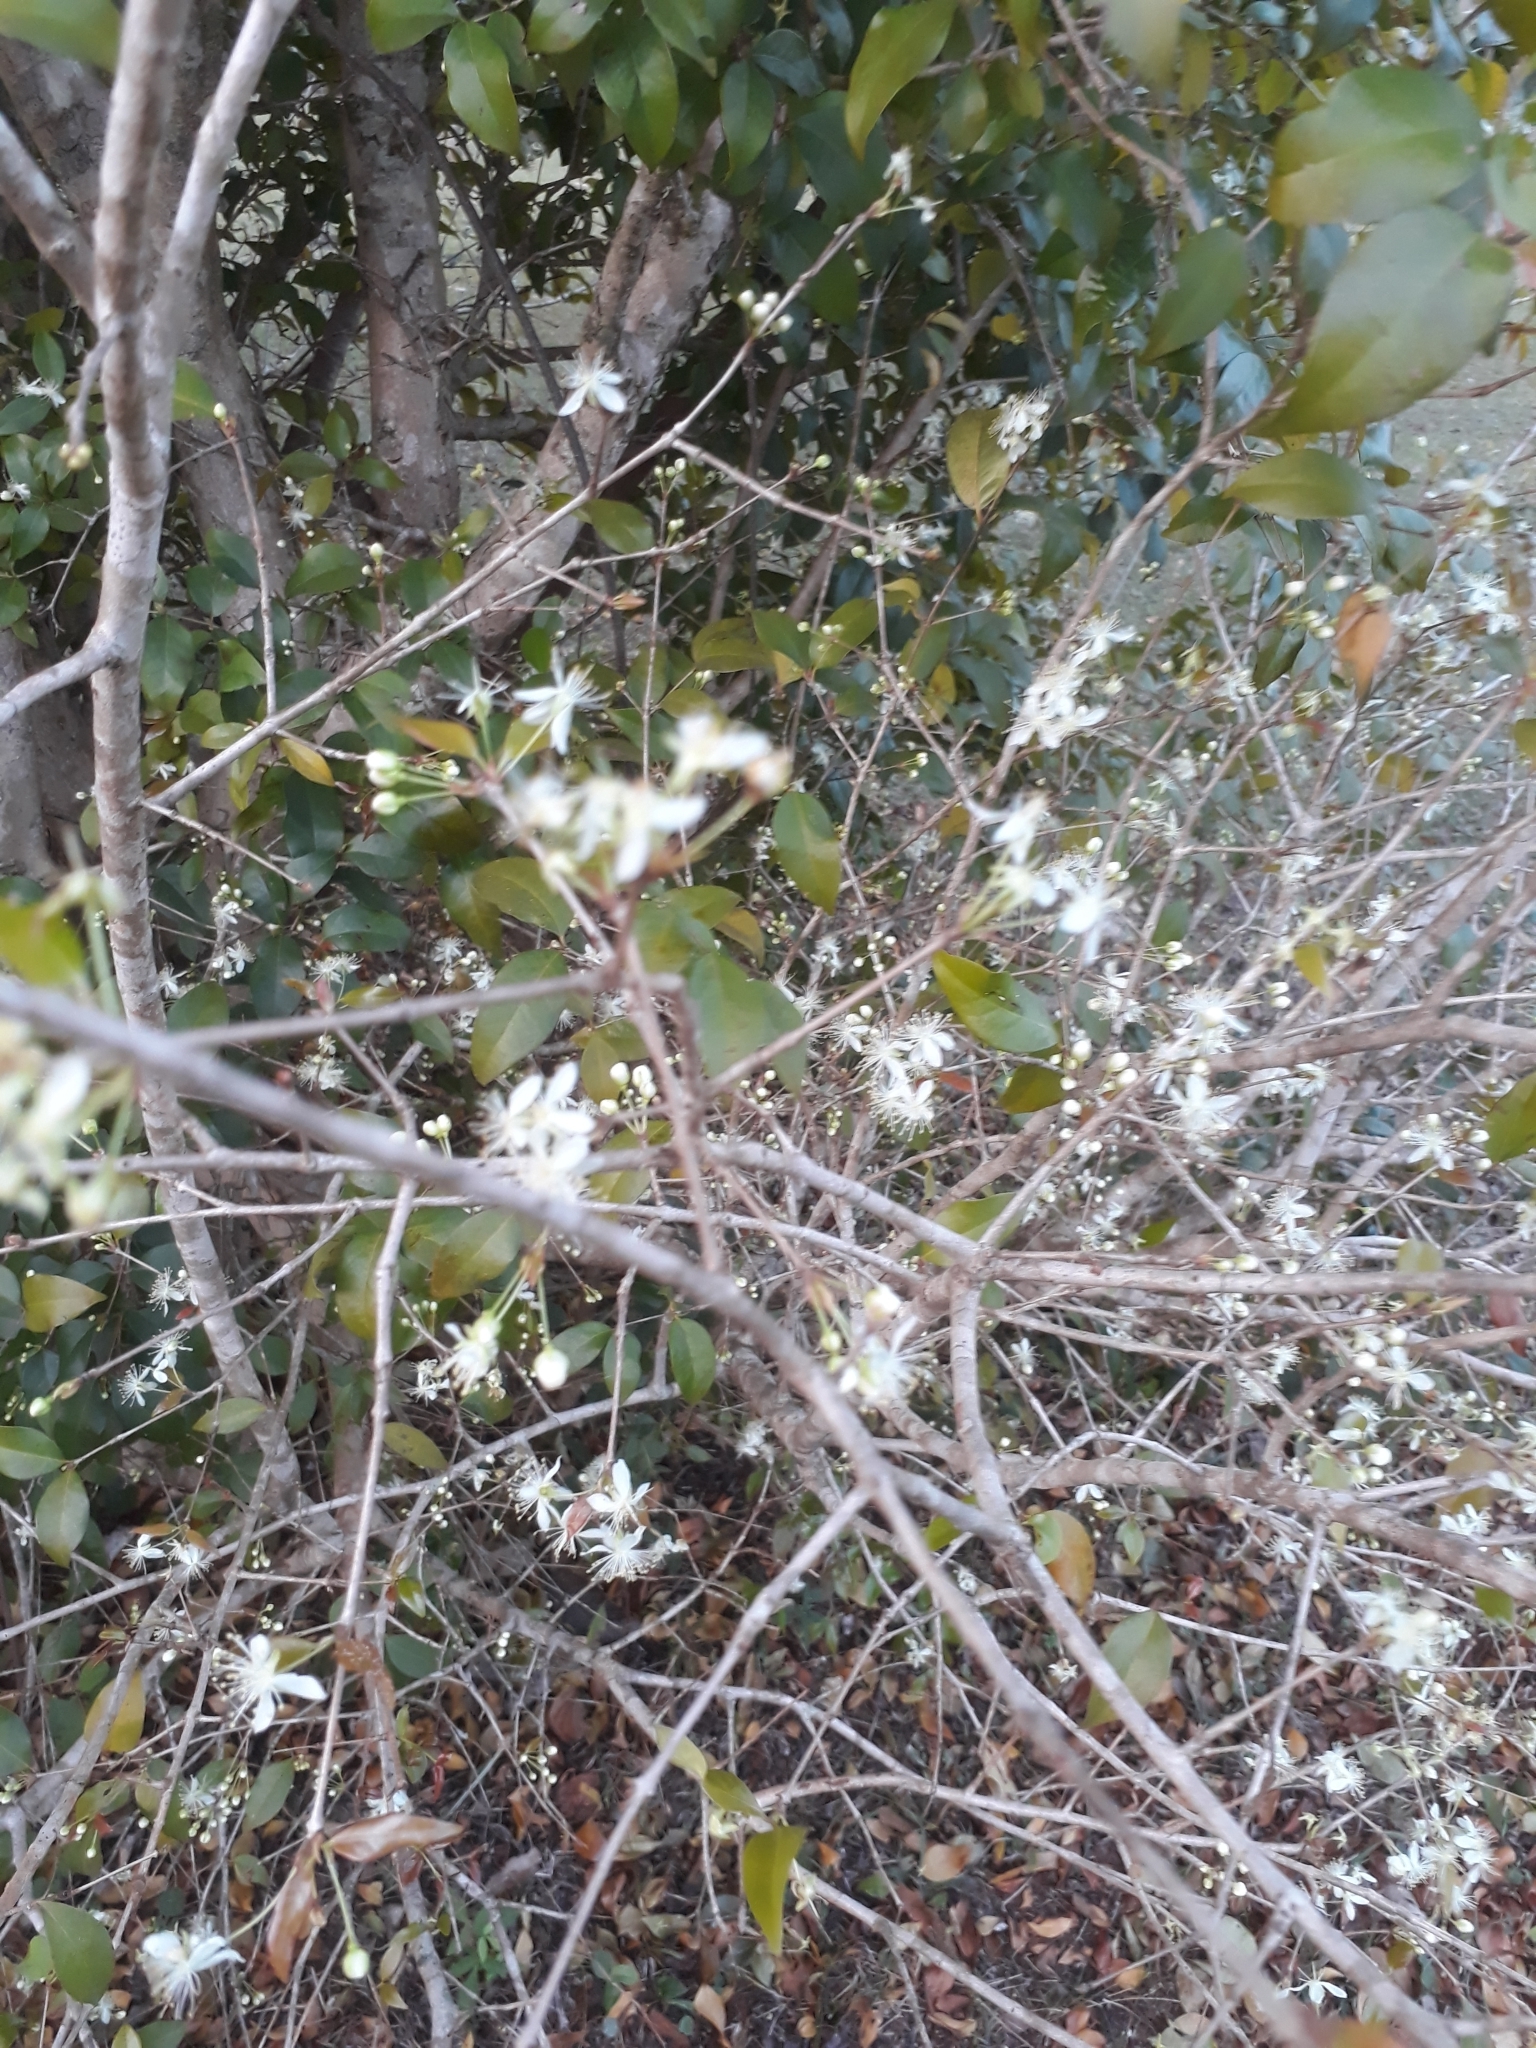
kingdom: Plantae
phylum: Tracheophyta
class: Magnoliopsida
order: Myrtales
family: Myrtaceae
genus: Eugenia
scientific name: Eugenia uniflora
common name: Surinam cherry
